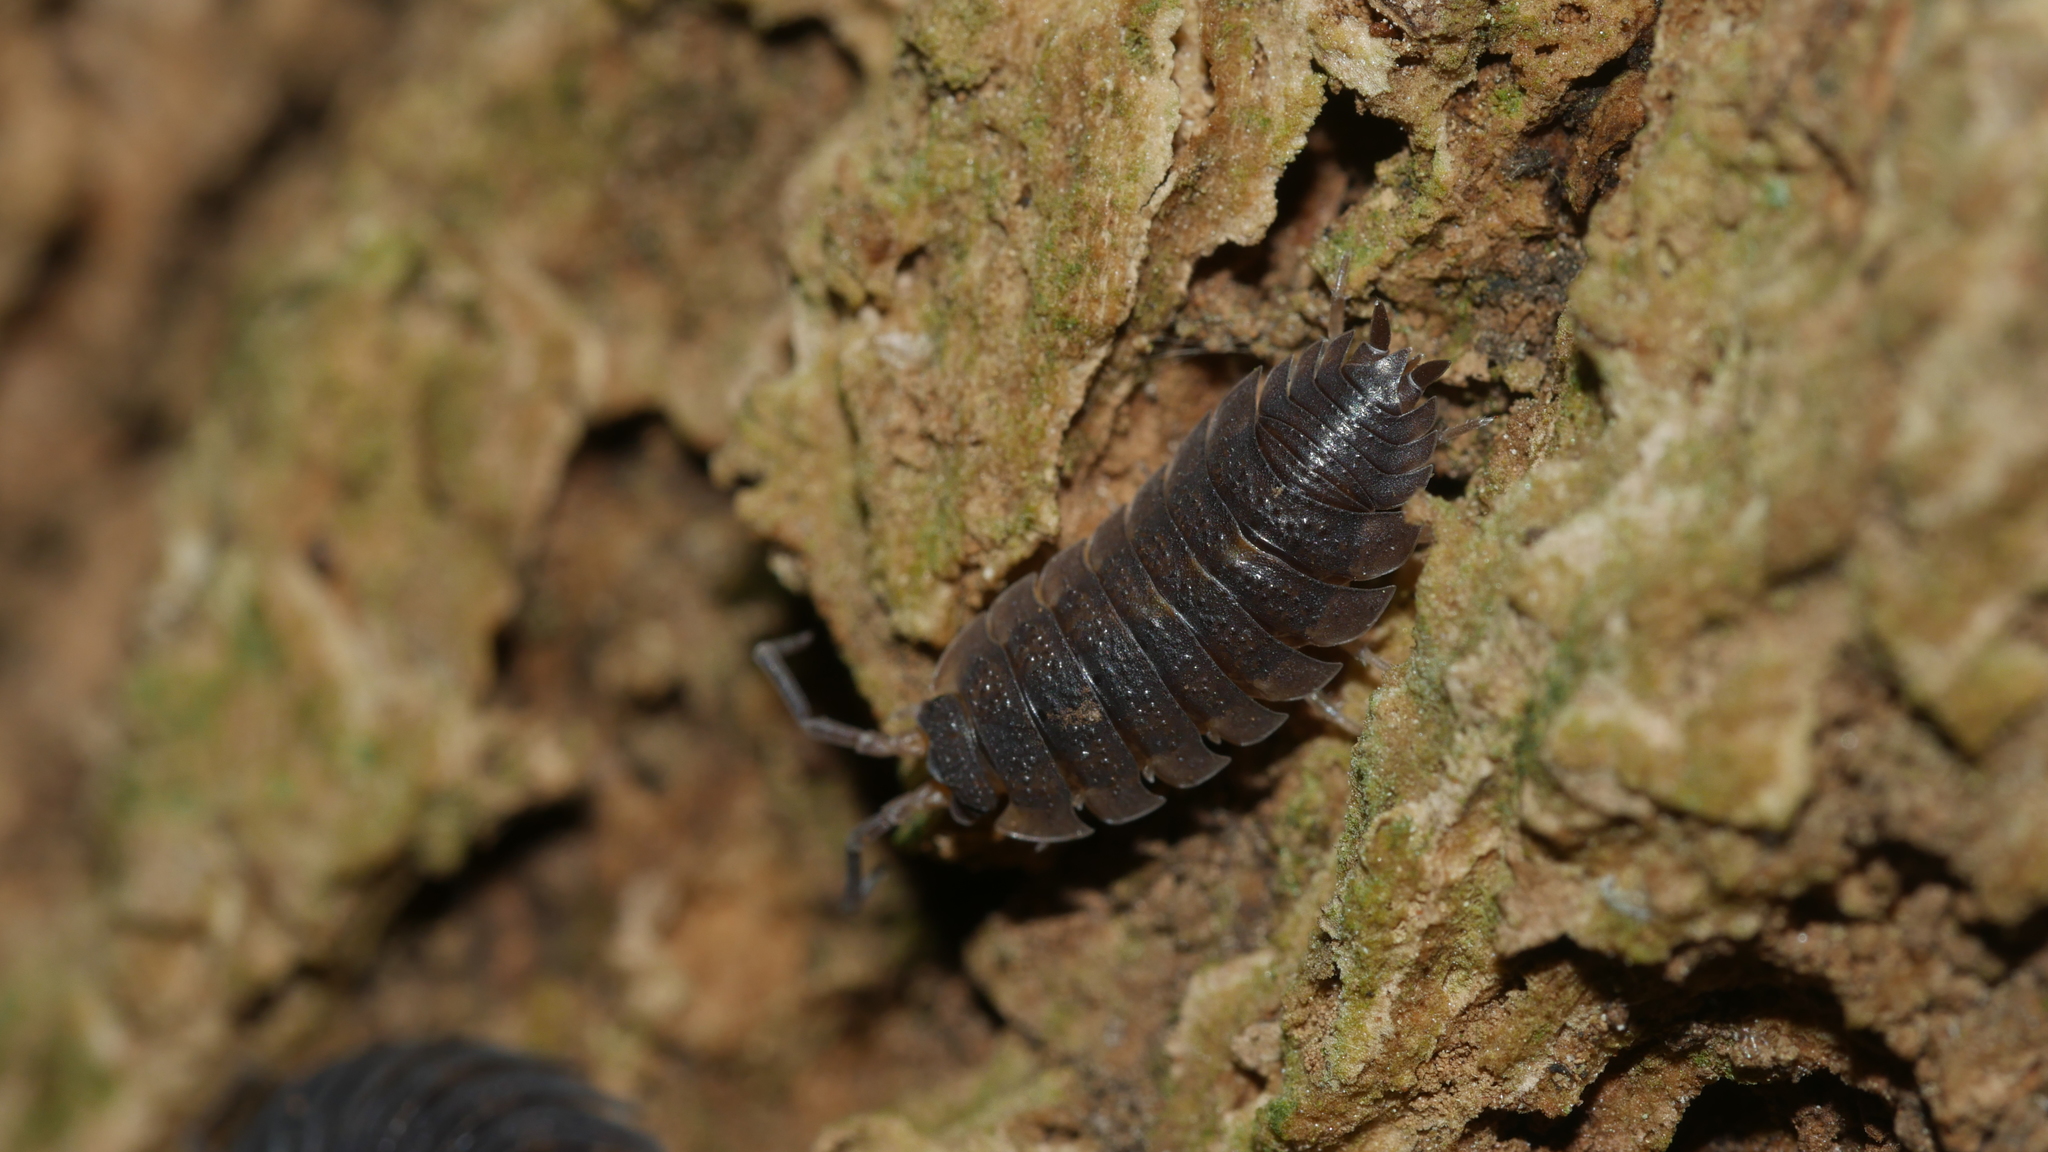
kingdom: Animalia
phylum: Arthropoda
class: Malacostraca
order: Isopoda
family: Porcellionidae
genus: Porcellio
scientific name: Porcellio scaber
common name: Common rough woodlouse
